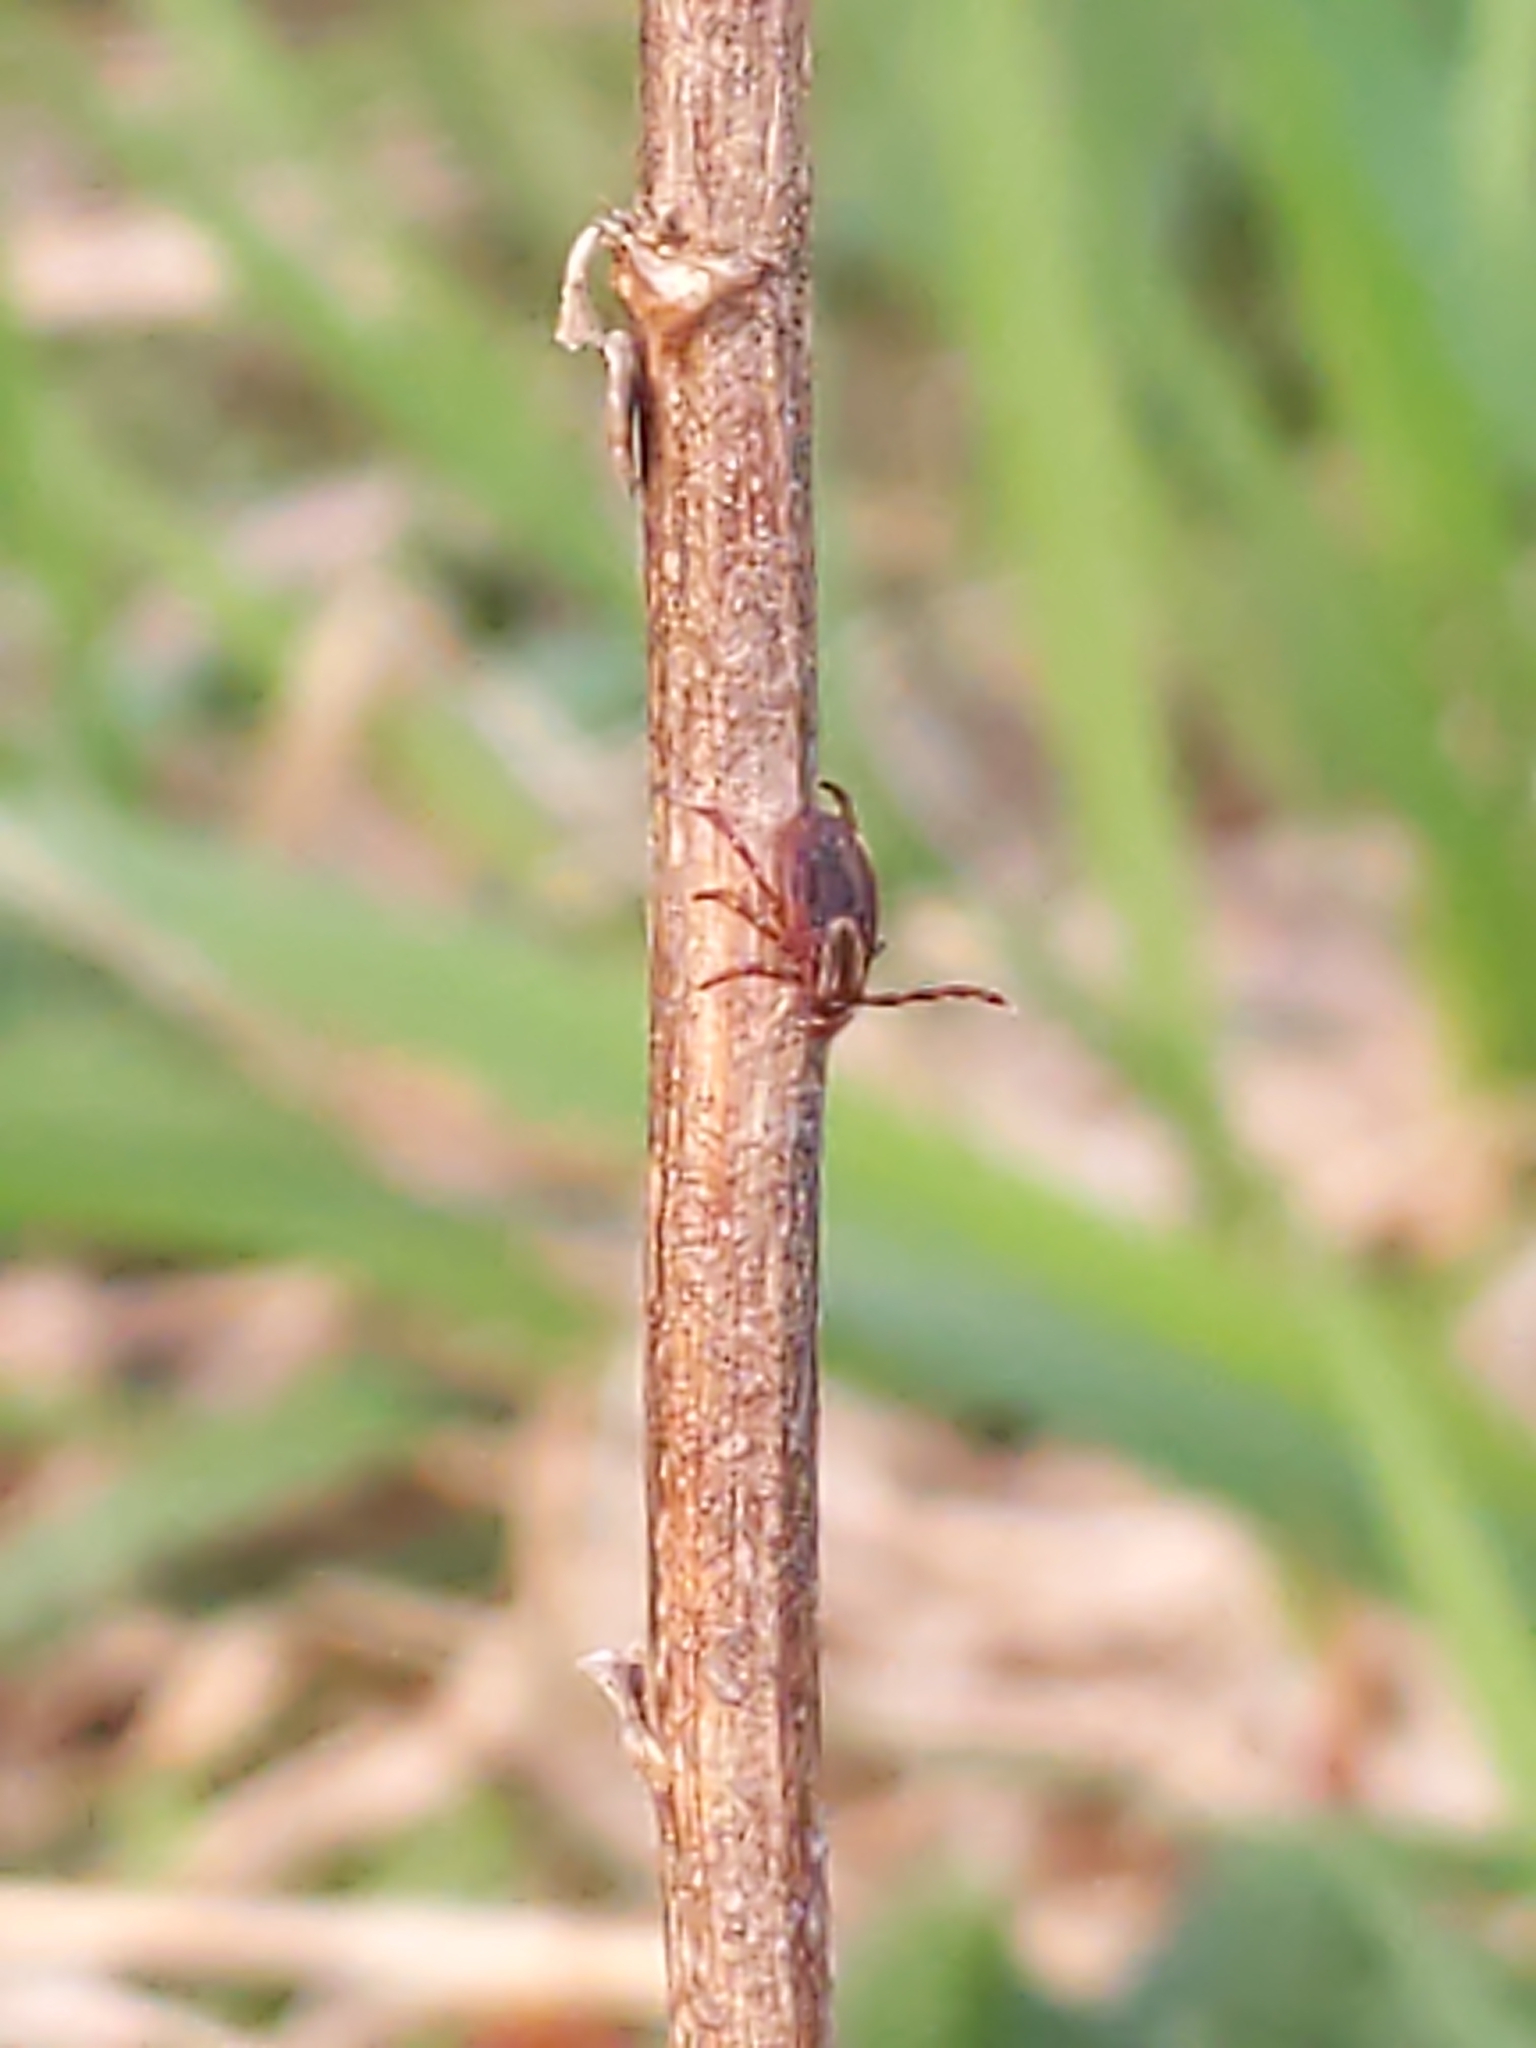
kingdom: Animalia
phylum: Arthropoda
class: Arachnida
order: Ixodida
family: Ixodidae
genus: Dermacentor
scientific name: Dermacentor variabilis
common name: American dog tick
